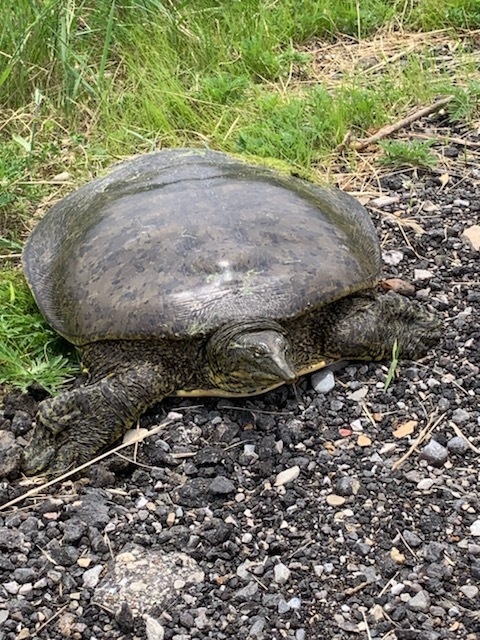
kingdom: Animalia
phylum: Chordata
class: Testudines
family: Trionychidae
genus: Apalone
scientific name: Apalone spinifera
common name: Spiny softshell turtle
